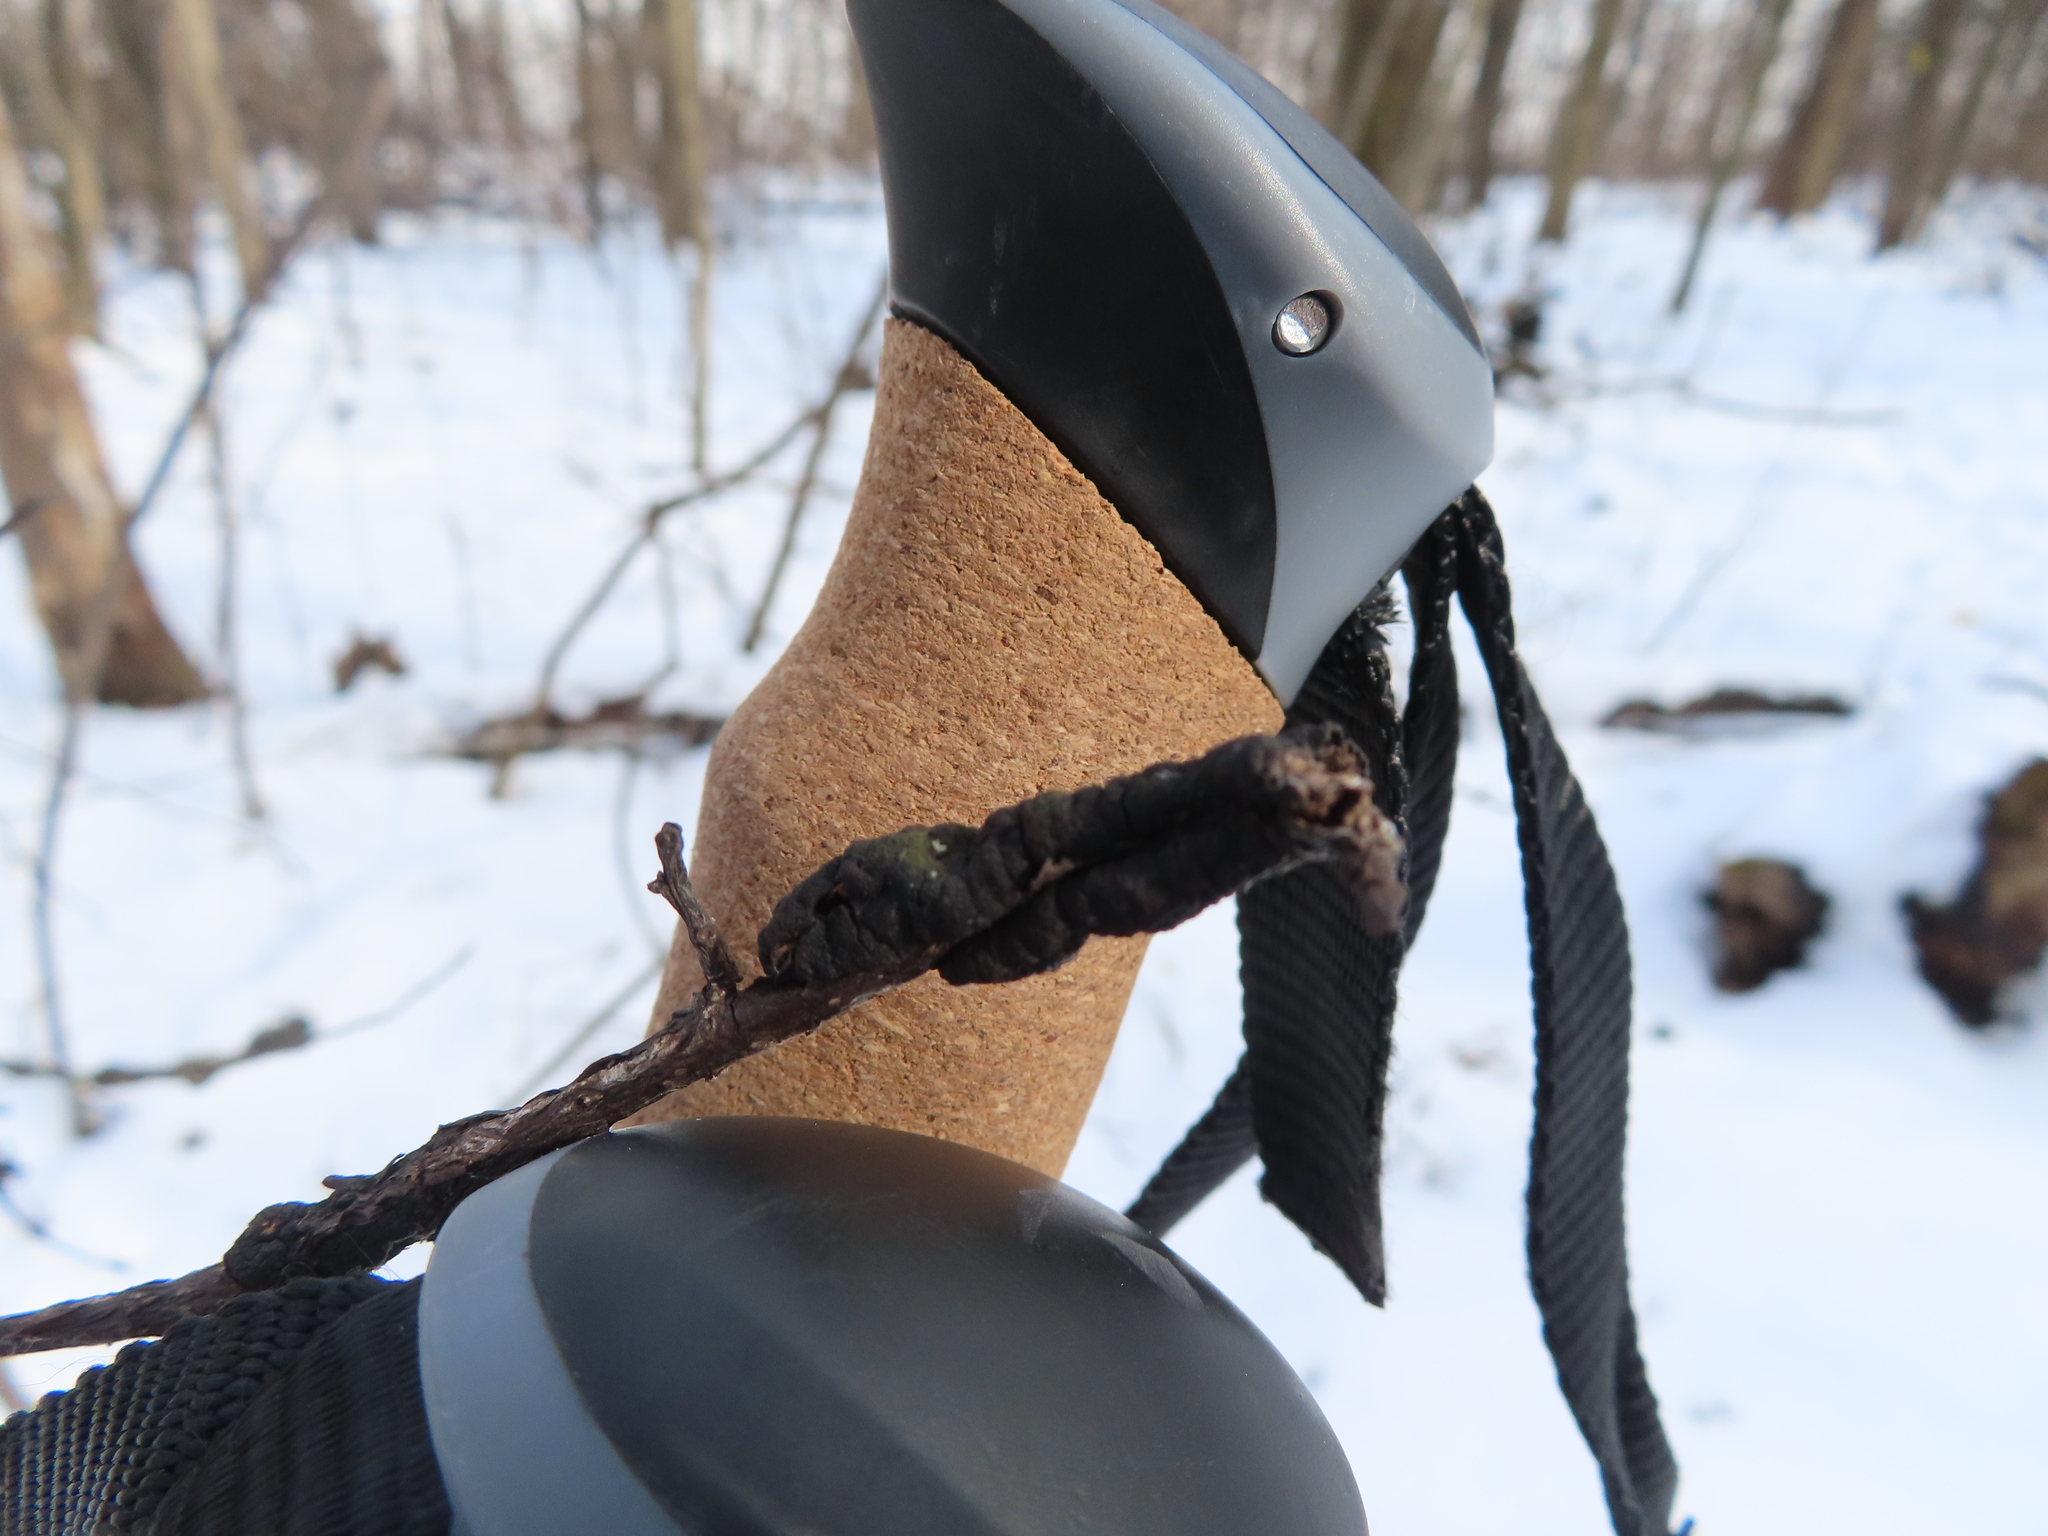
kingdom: Fungi
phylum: Ascomycota
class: Dothideomycetes
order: Venturiales
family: Venturiaceae
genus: Apiosporina
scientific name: Apiosporina morbosa
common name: Black knot
